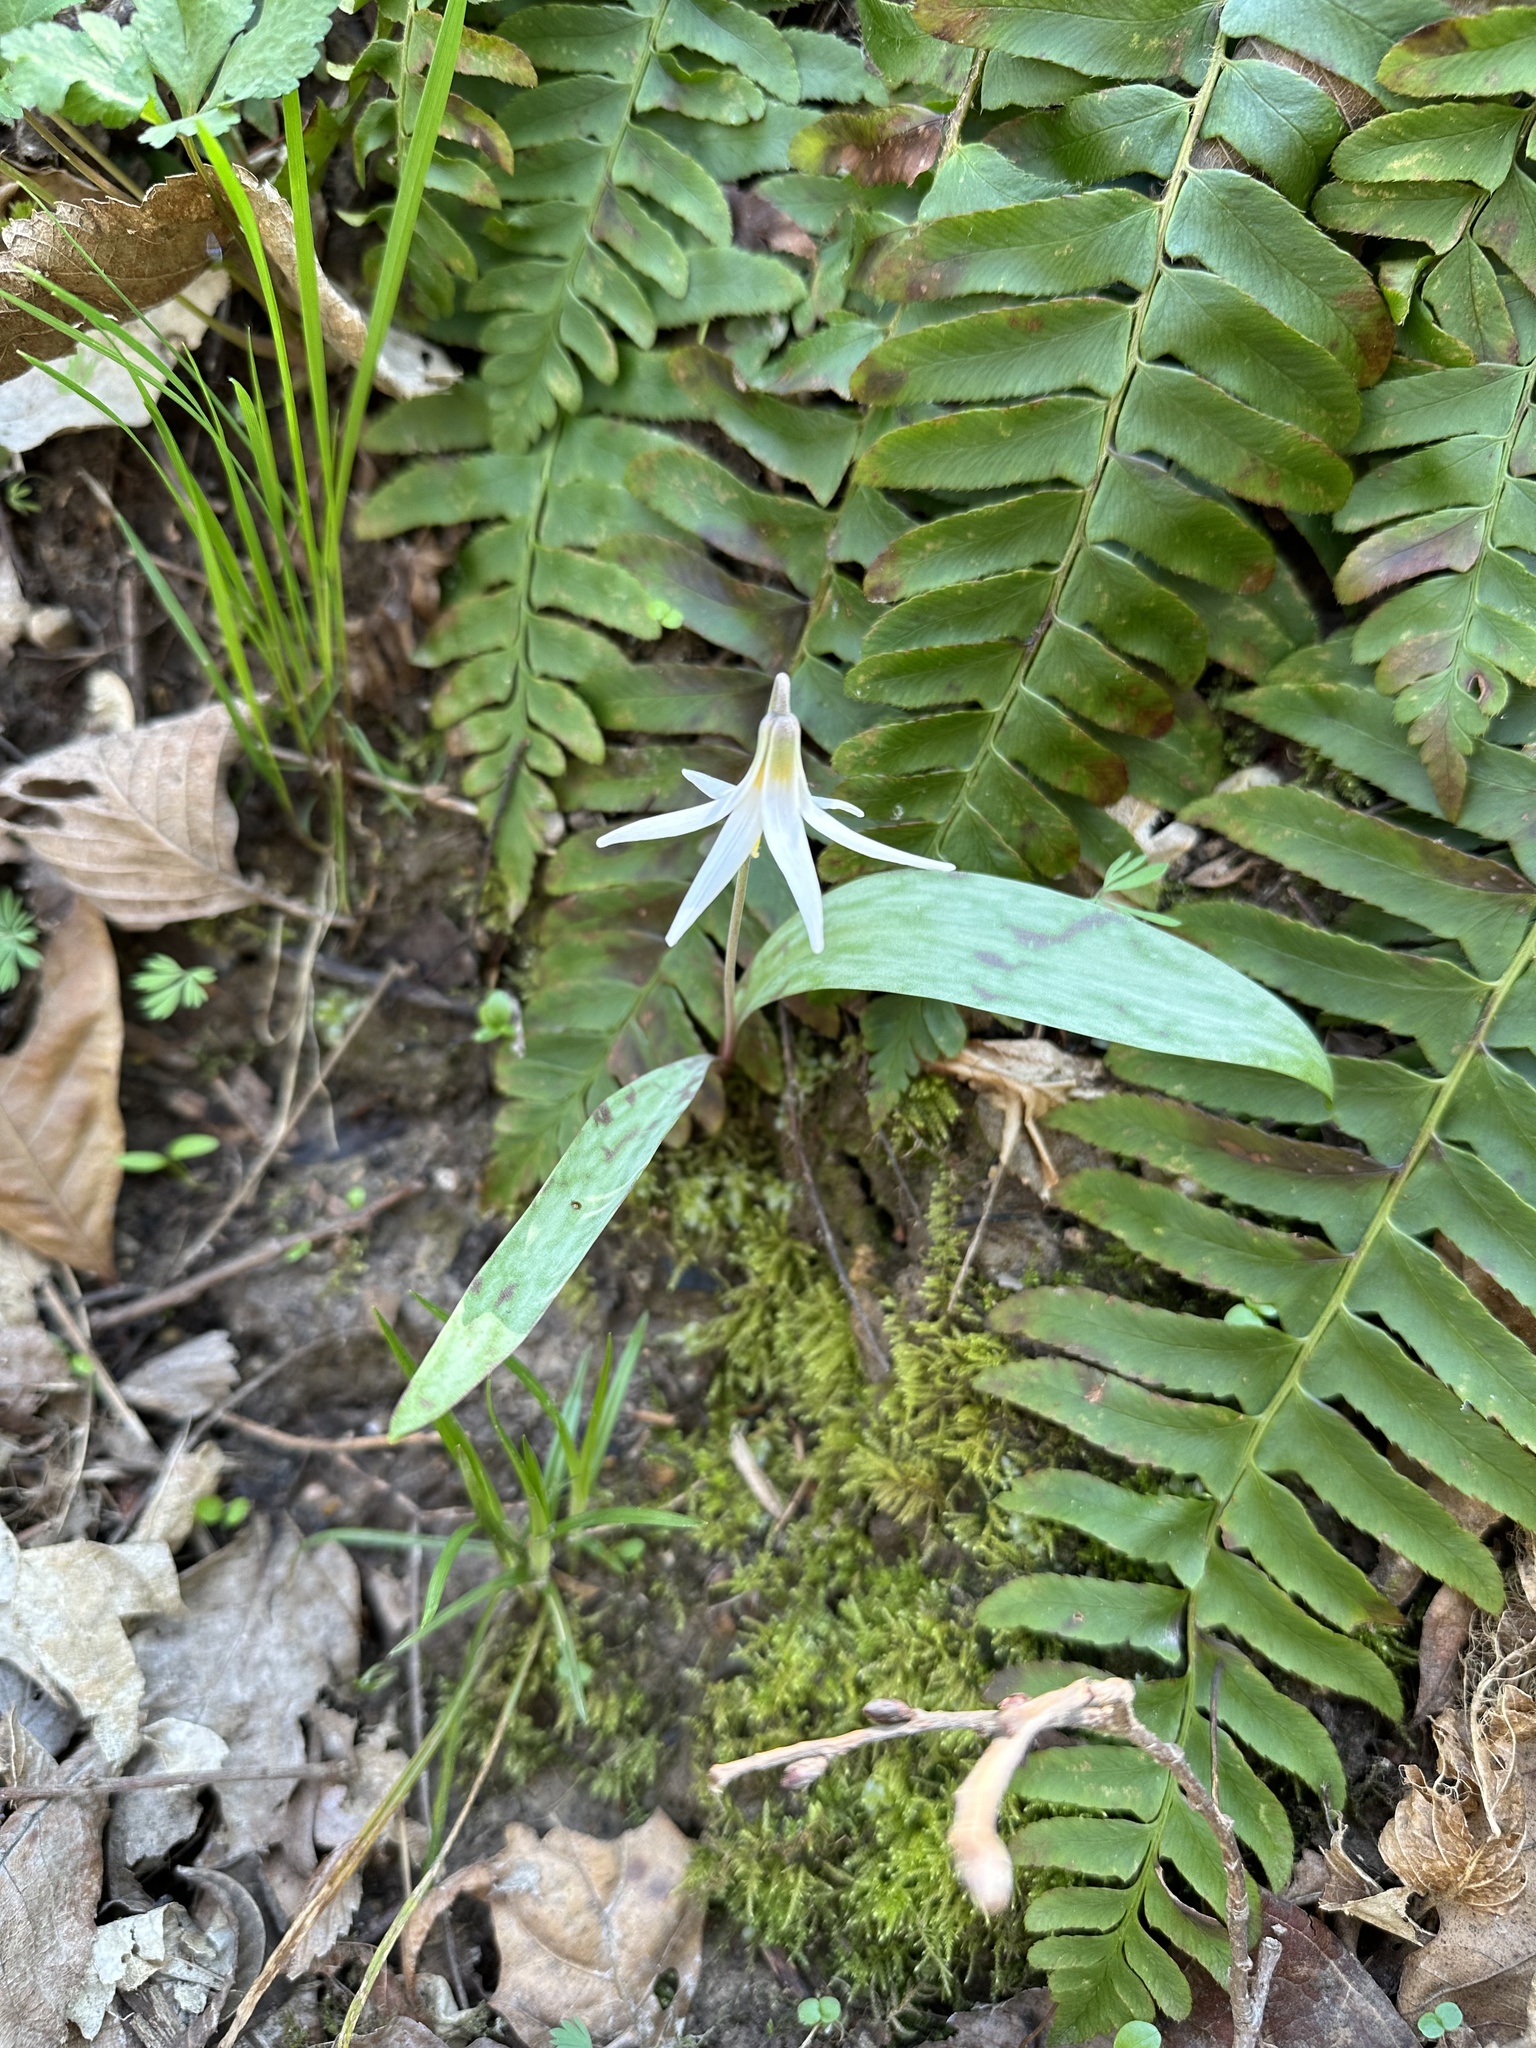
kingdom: Plantae
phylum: Tracheophyta
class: Liliopsida
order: Liliales
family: Liliaceae
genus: Erythronium
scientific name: Erythronium albidum
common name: White trout-lily
